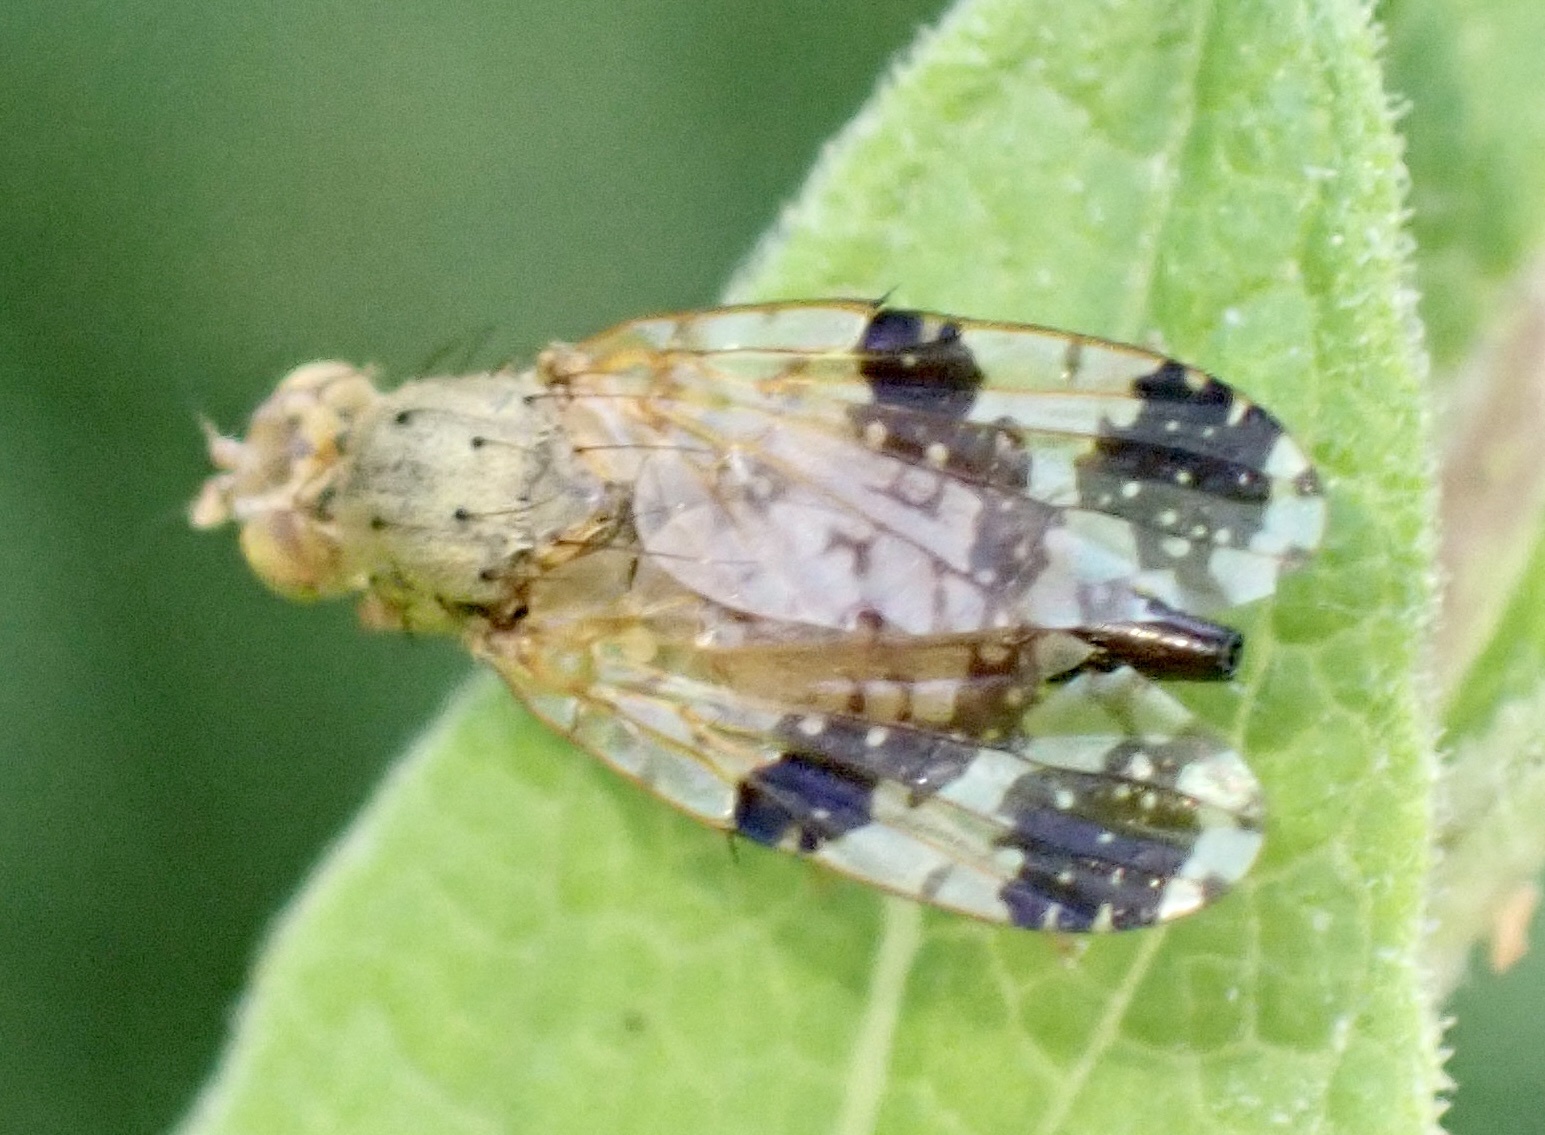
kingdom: Animalia
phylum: Arthropoda
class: Insecta
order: Diptera
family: Tephritidae
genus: Tephritis
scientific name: Tephritis bardanae
